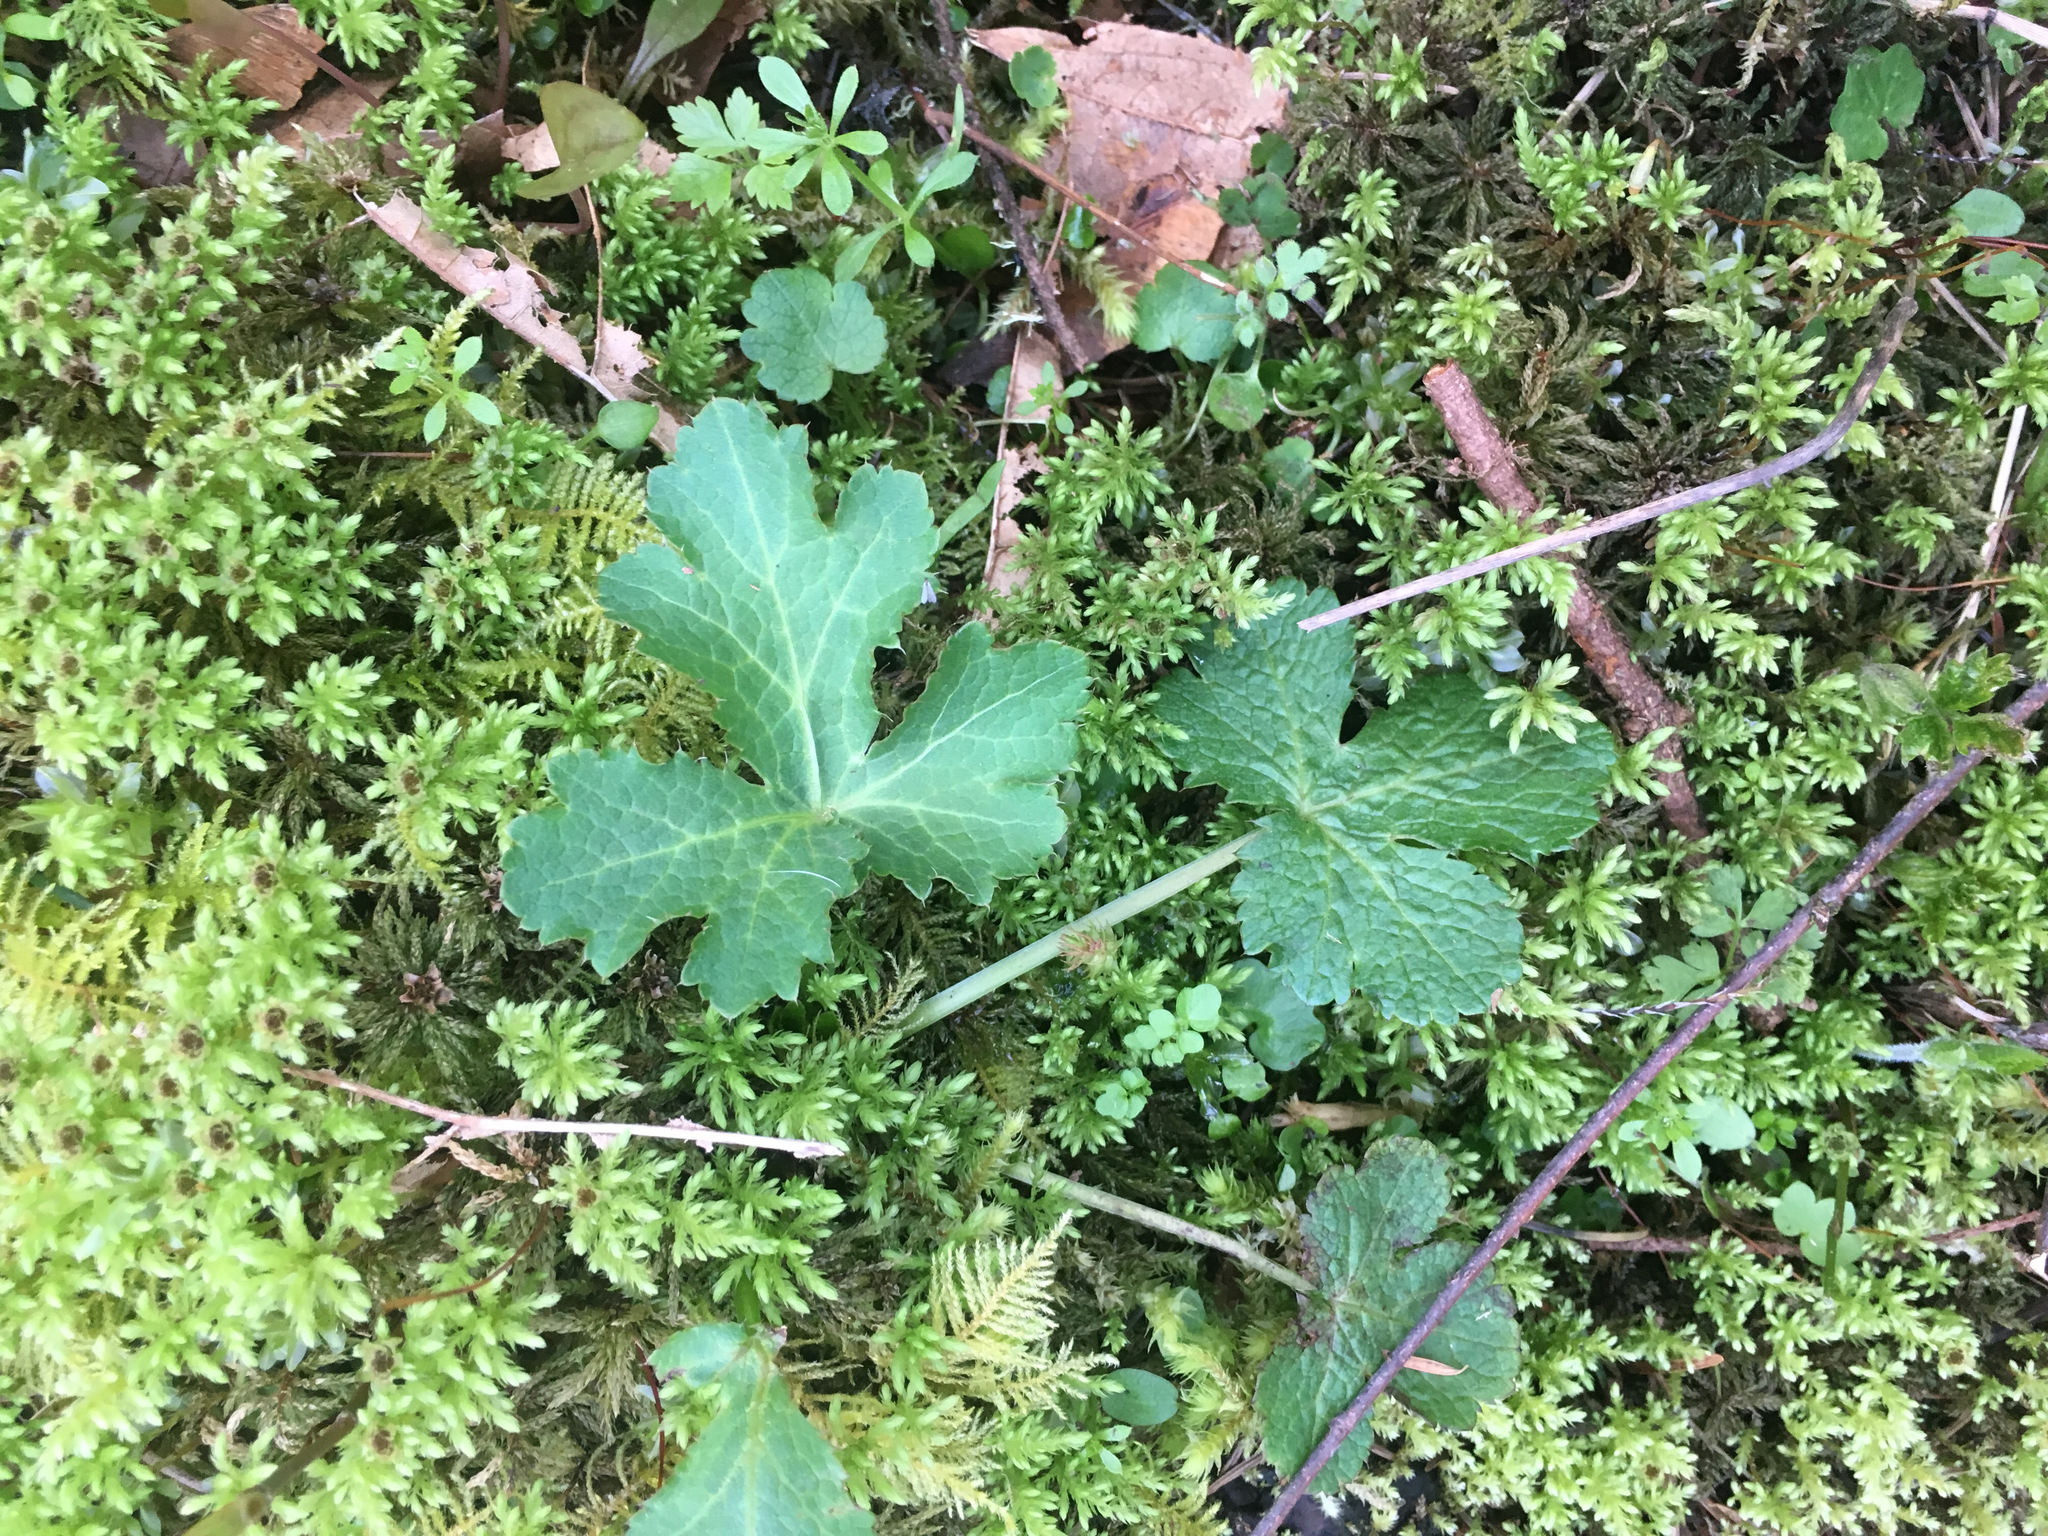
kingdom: Plantae
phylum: Tracheophyta
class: Magnoliopsida
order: Apiales
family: Apiaceae
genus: Sanicula
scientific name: Sanicula crassicaulis
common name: Western snakeroot
